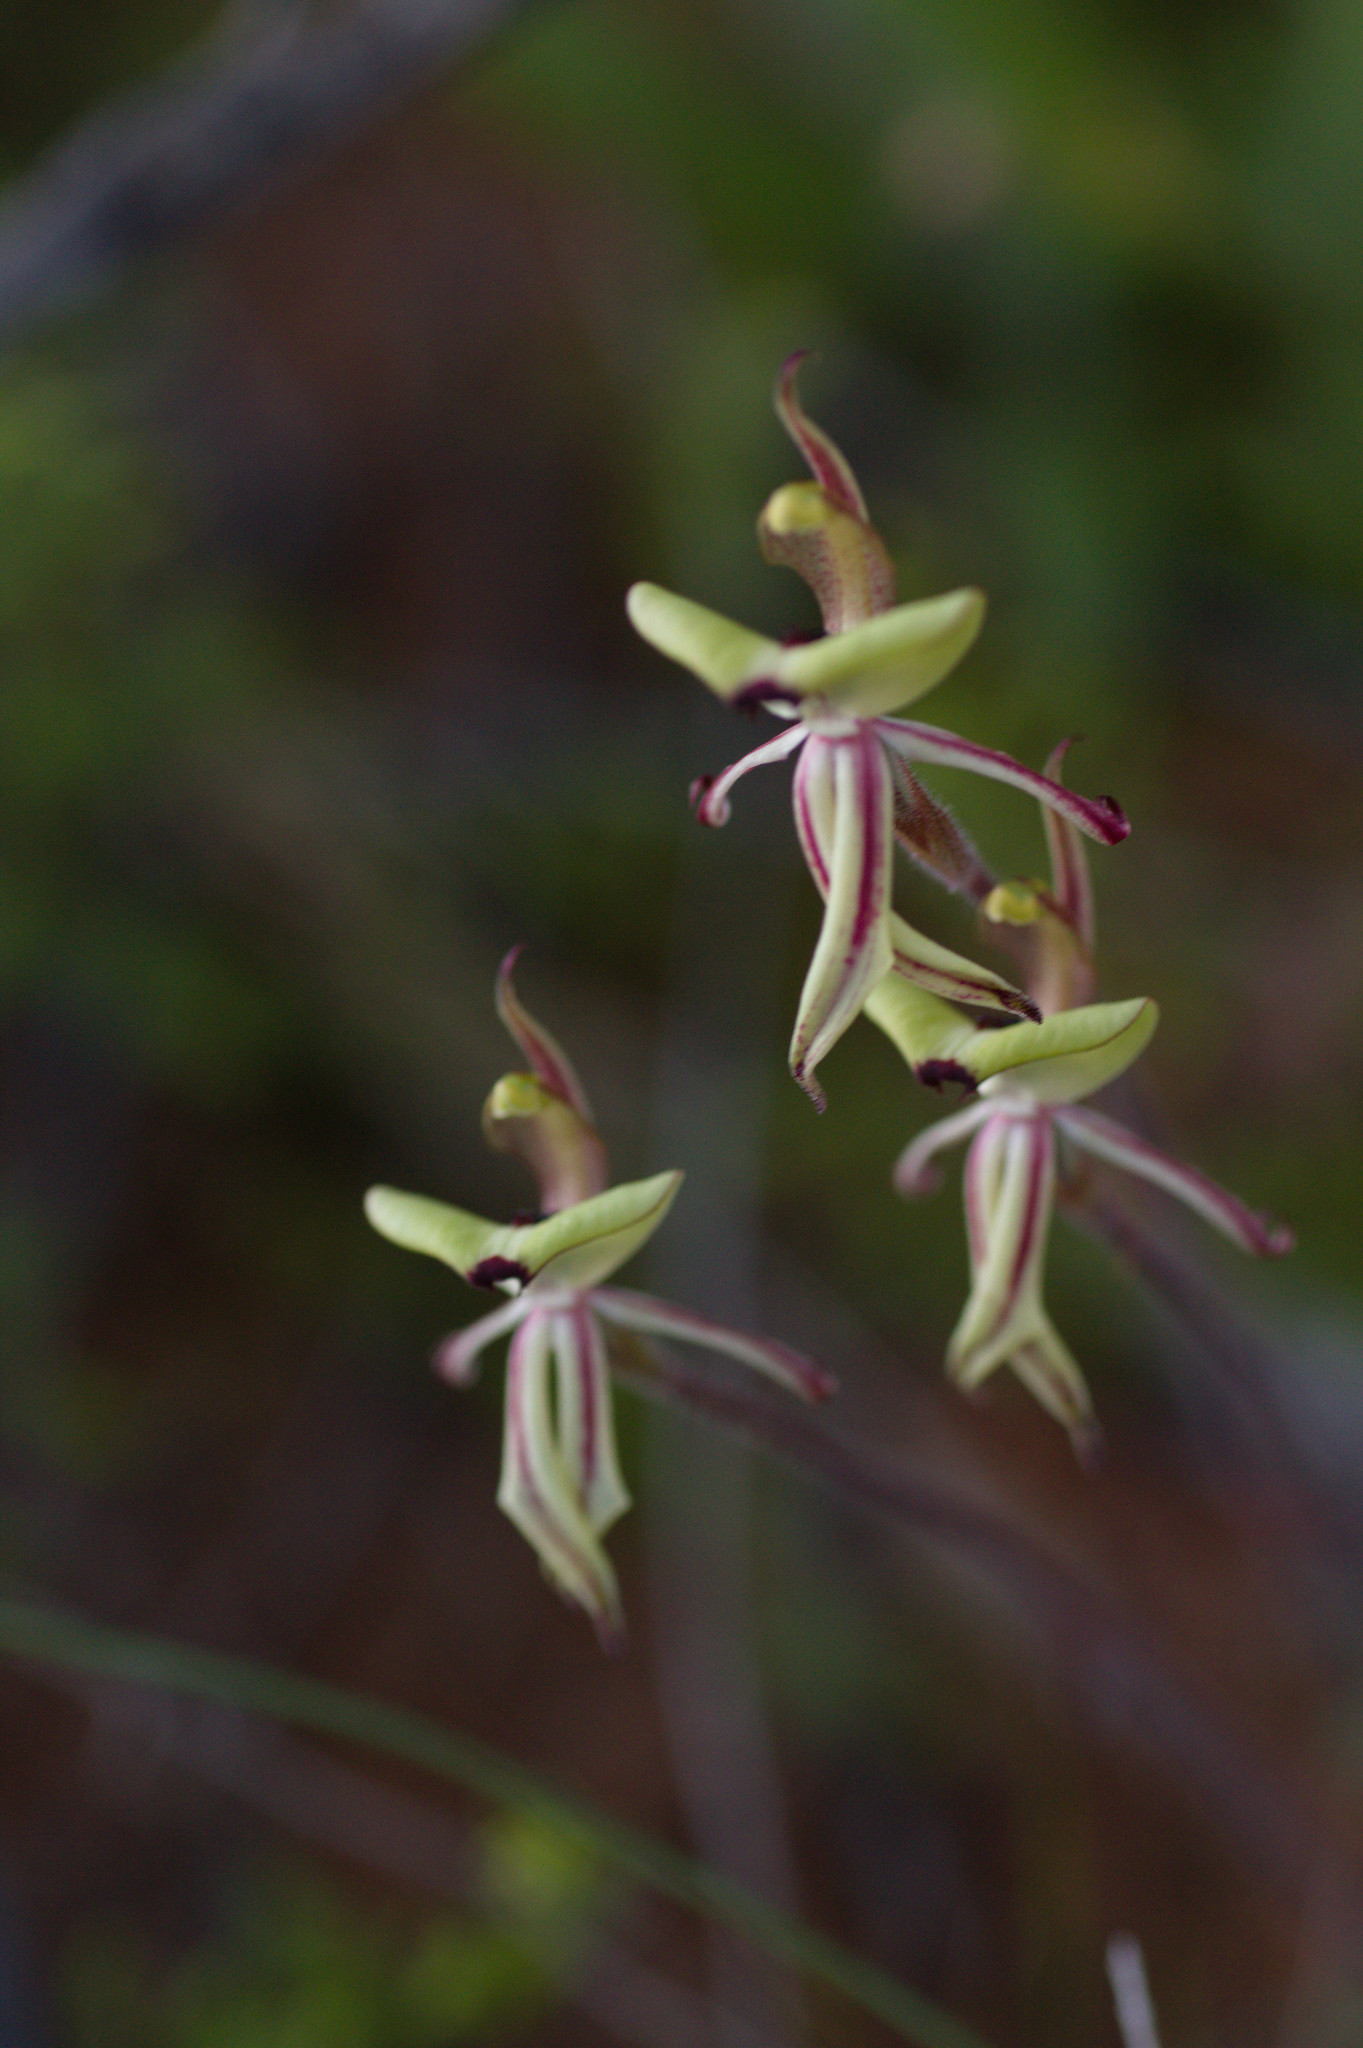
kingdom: Plantae
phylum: Tracheophyta
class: Liliopsida
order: Asparagales
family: Orchidaceae
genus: Caladenia
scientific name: Caladenia roei
